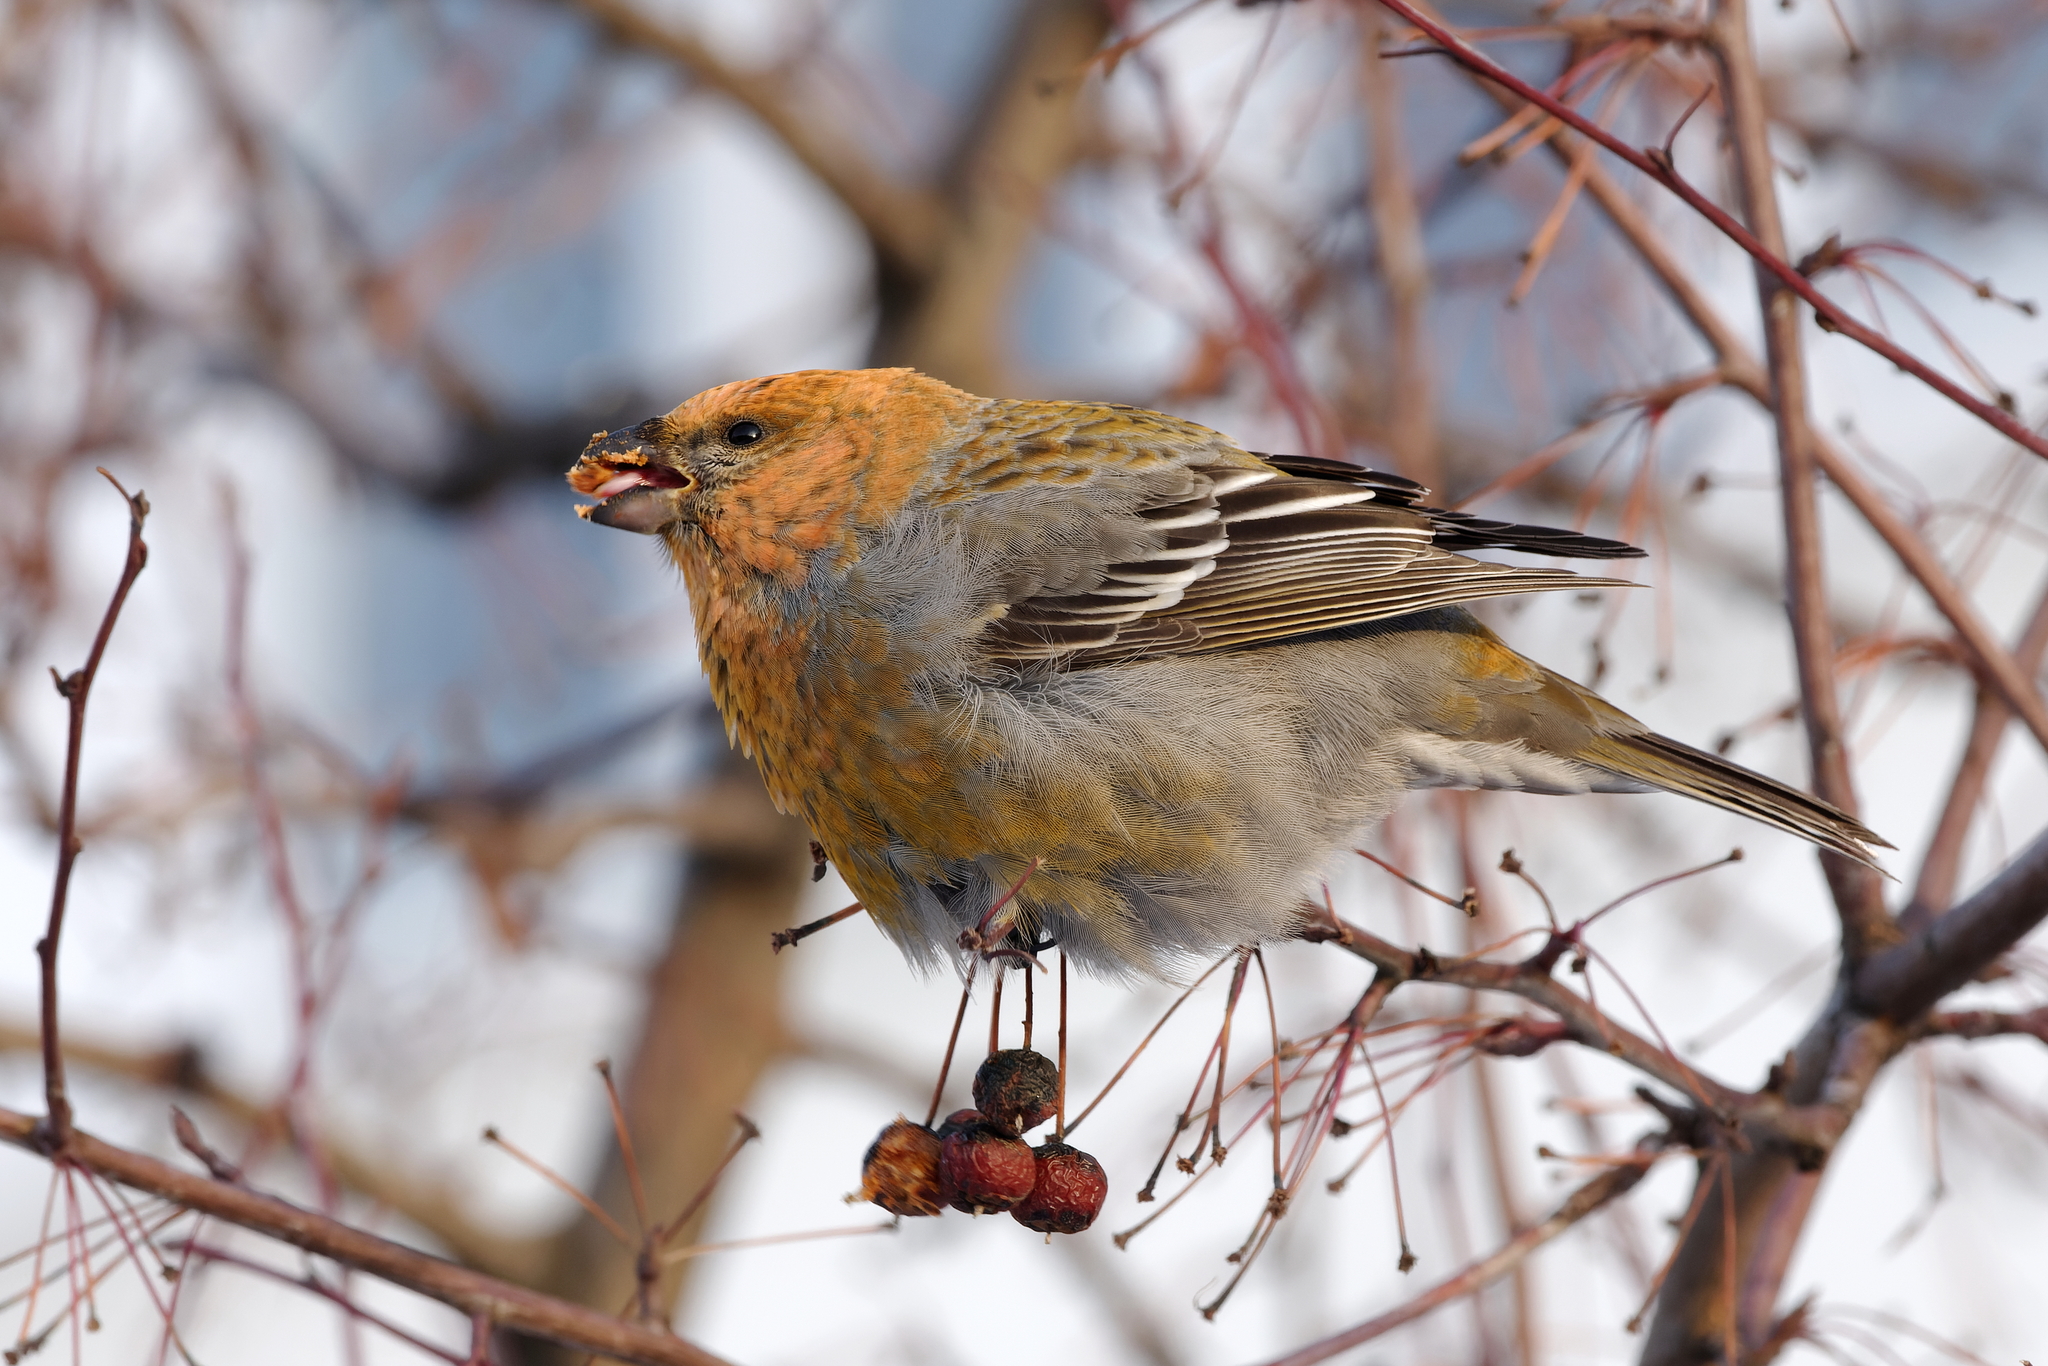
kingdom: Animalia
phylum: Chordata
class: Aves
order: Passeriformes
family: Fringillidae
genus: Pinicola
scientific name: Pinicola enucleator
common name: Pine grosbeak
